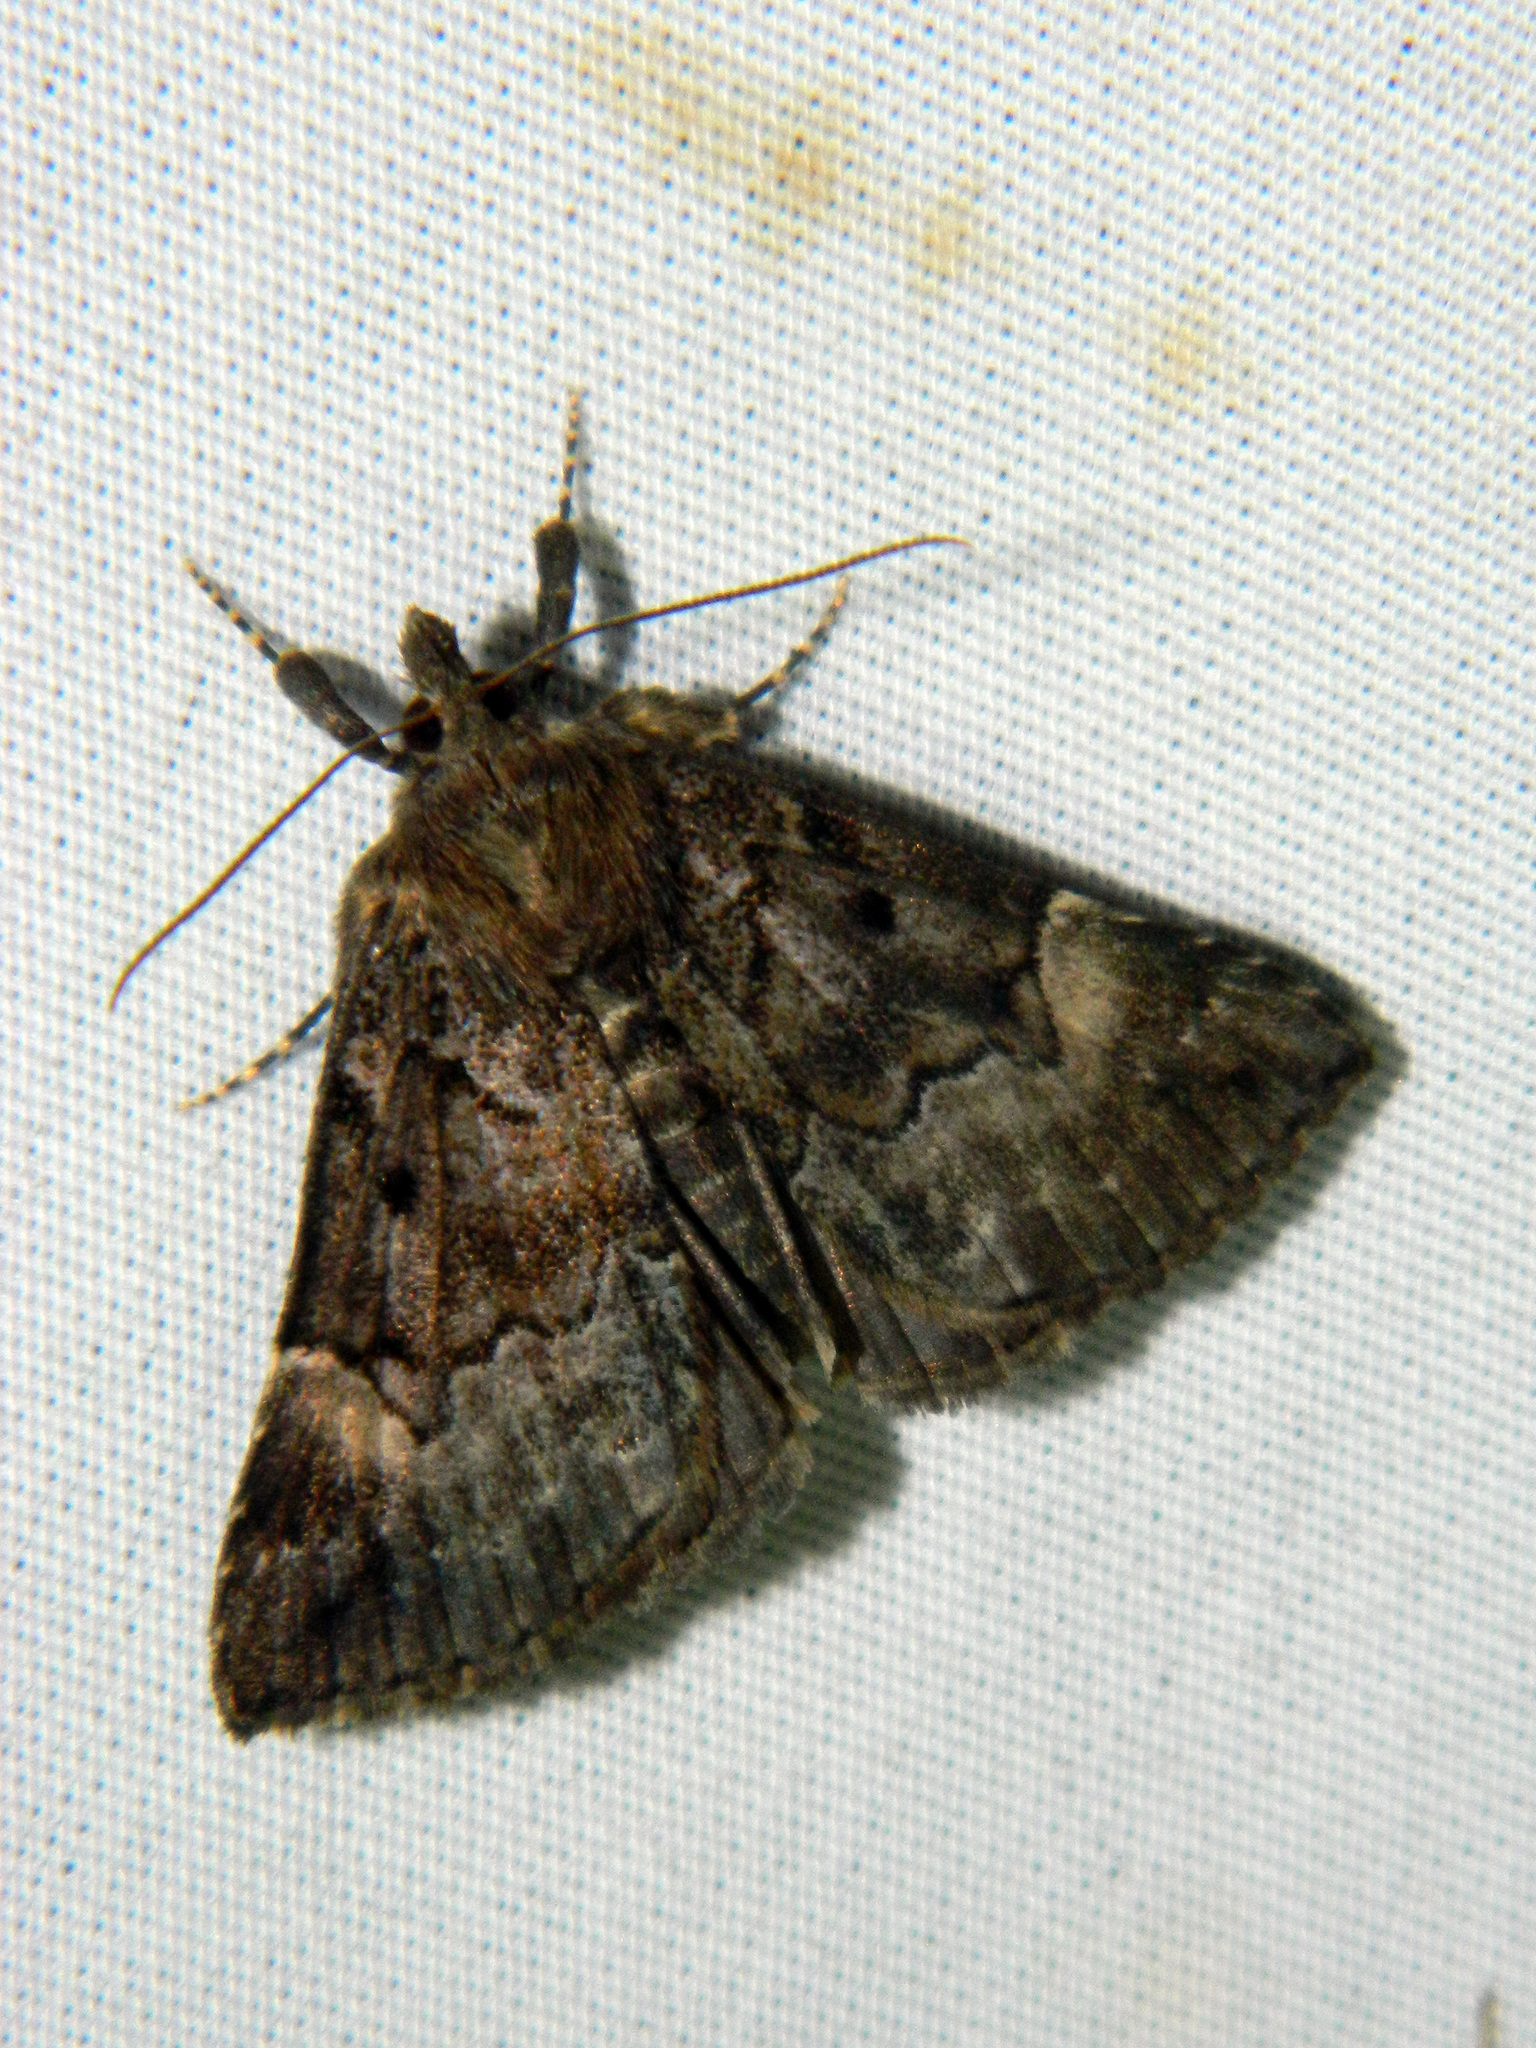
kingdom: Animalia
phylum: Arthropoda
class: Insecta
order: Lepidoptera
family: Erebidae
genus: Hypena
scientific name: Hypena palparia
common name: Mottled bomolocha moth
